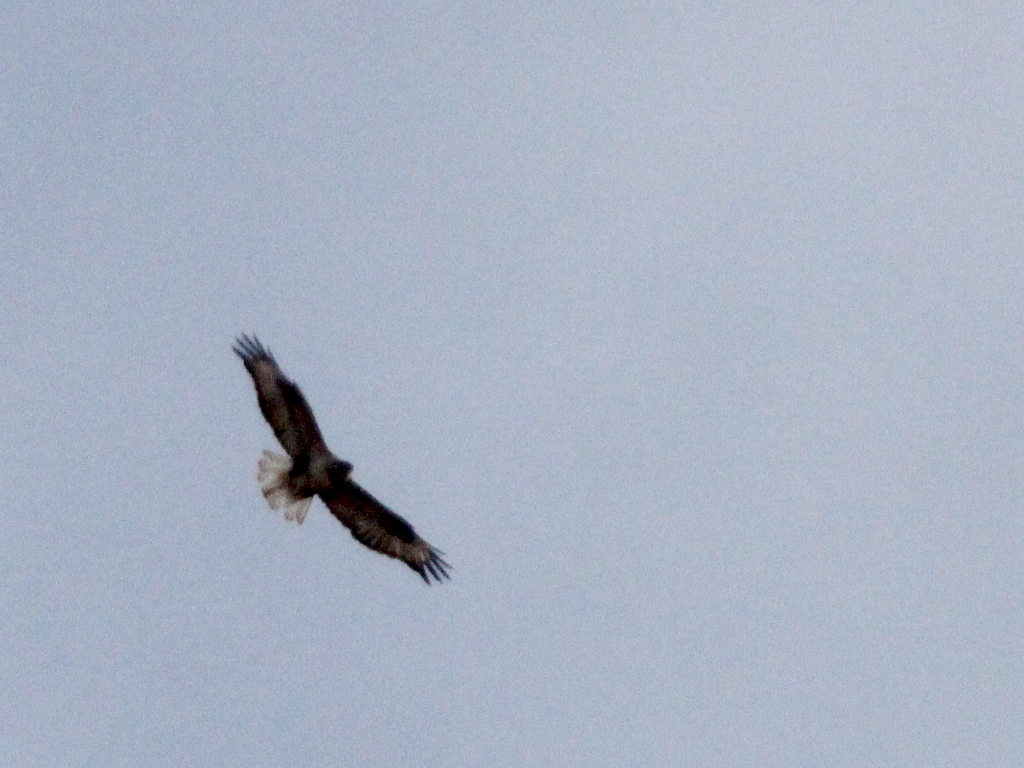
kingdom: Animalia
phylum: Chordata
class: Aves
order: Accipitriformes
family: Accipitridae
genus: Buteo
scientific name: Buteo hemilasius
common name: Upland buzzard
